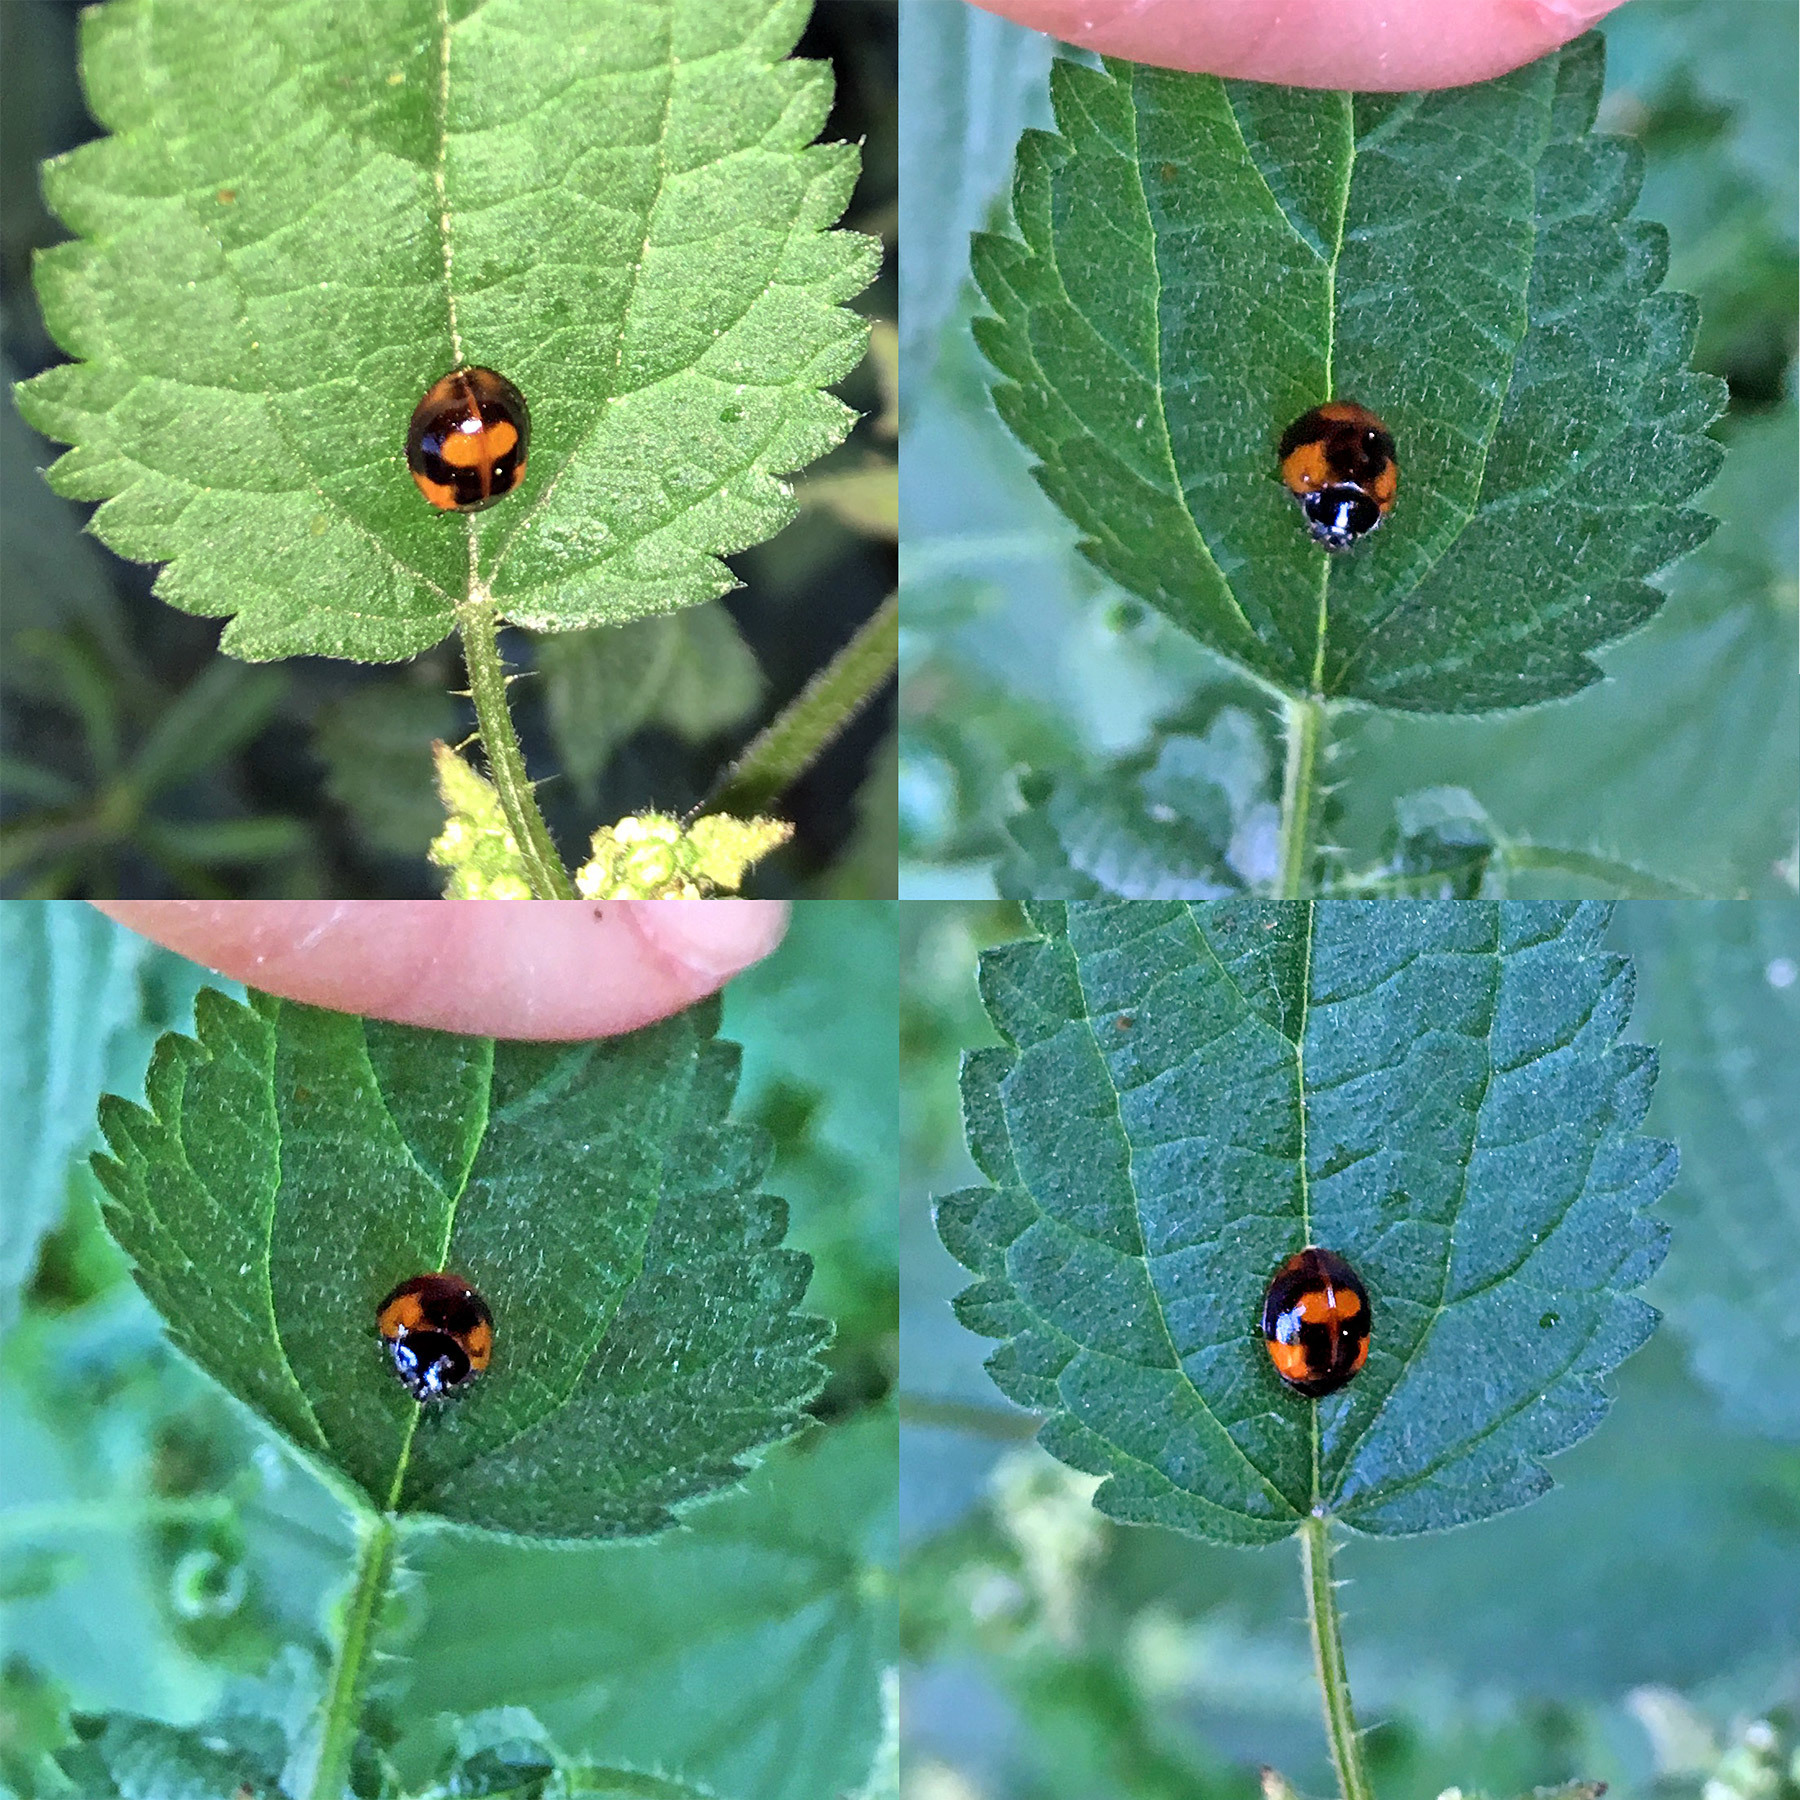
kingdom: Animalia
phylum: Arthropoda
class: Insecta
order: Coleoptera
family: Coccinellidae
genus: Adalia
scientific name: Adalia bipunctata
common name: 2-spot ladybird
